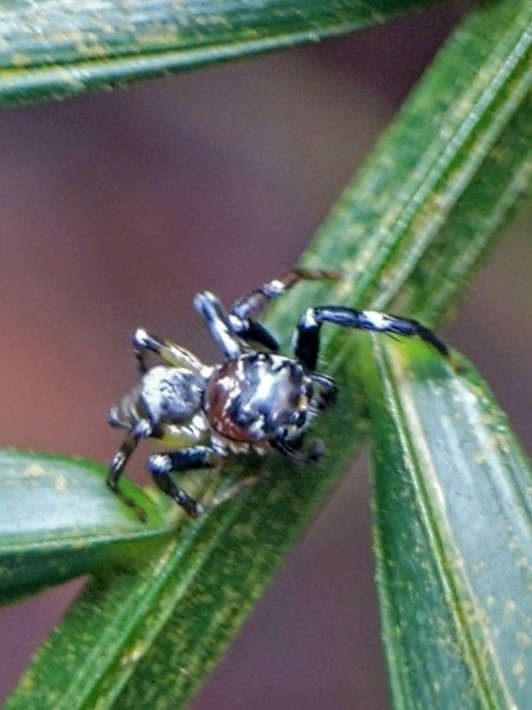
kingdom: Animalia
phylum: Arthropoda
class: Arachnida
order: Araneae
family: Salticidae
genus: Colyttus
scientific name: Colyttus striatus
